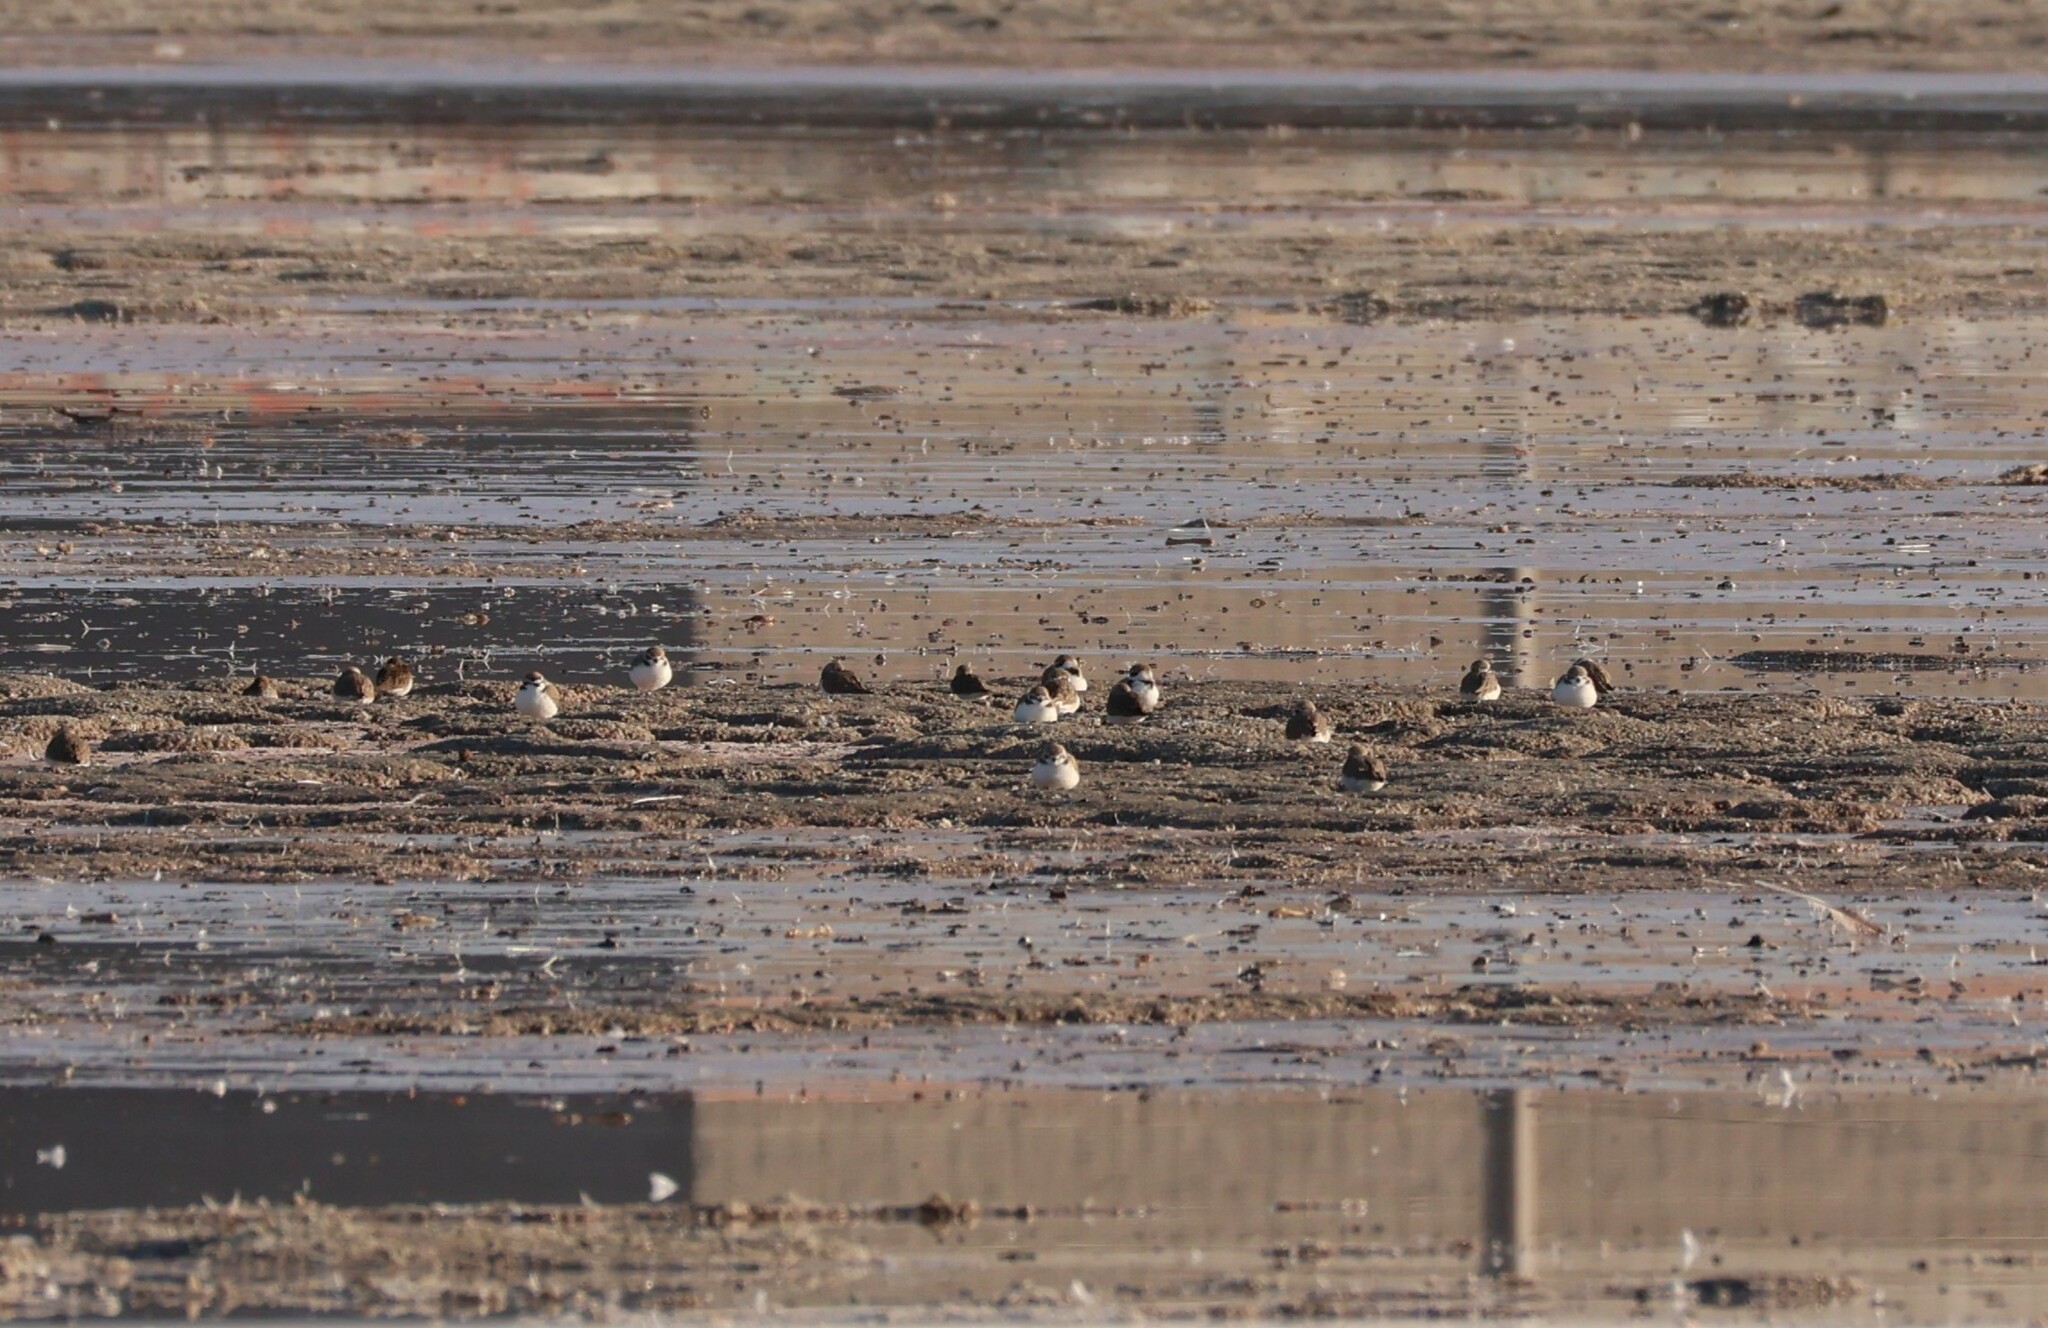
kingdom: Animalia
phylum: Chordata
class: Aves
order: Charadriiformes
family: Charadriidae
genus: Anarhynchus
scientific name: Anarhynchus
